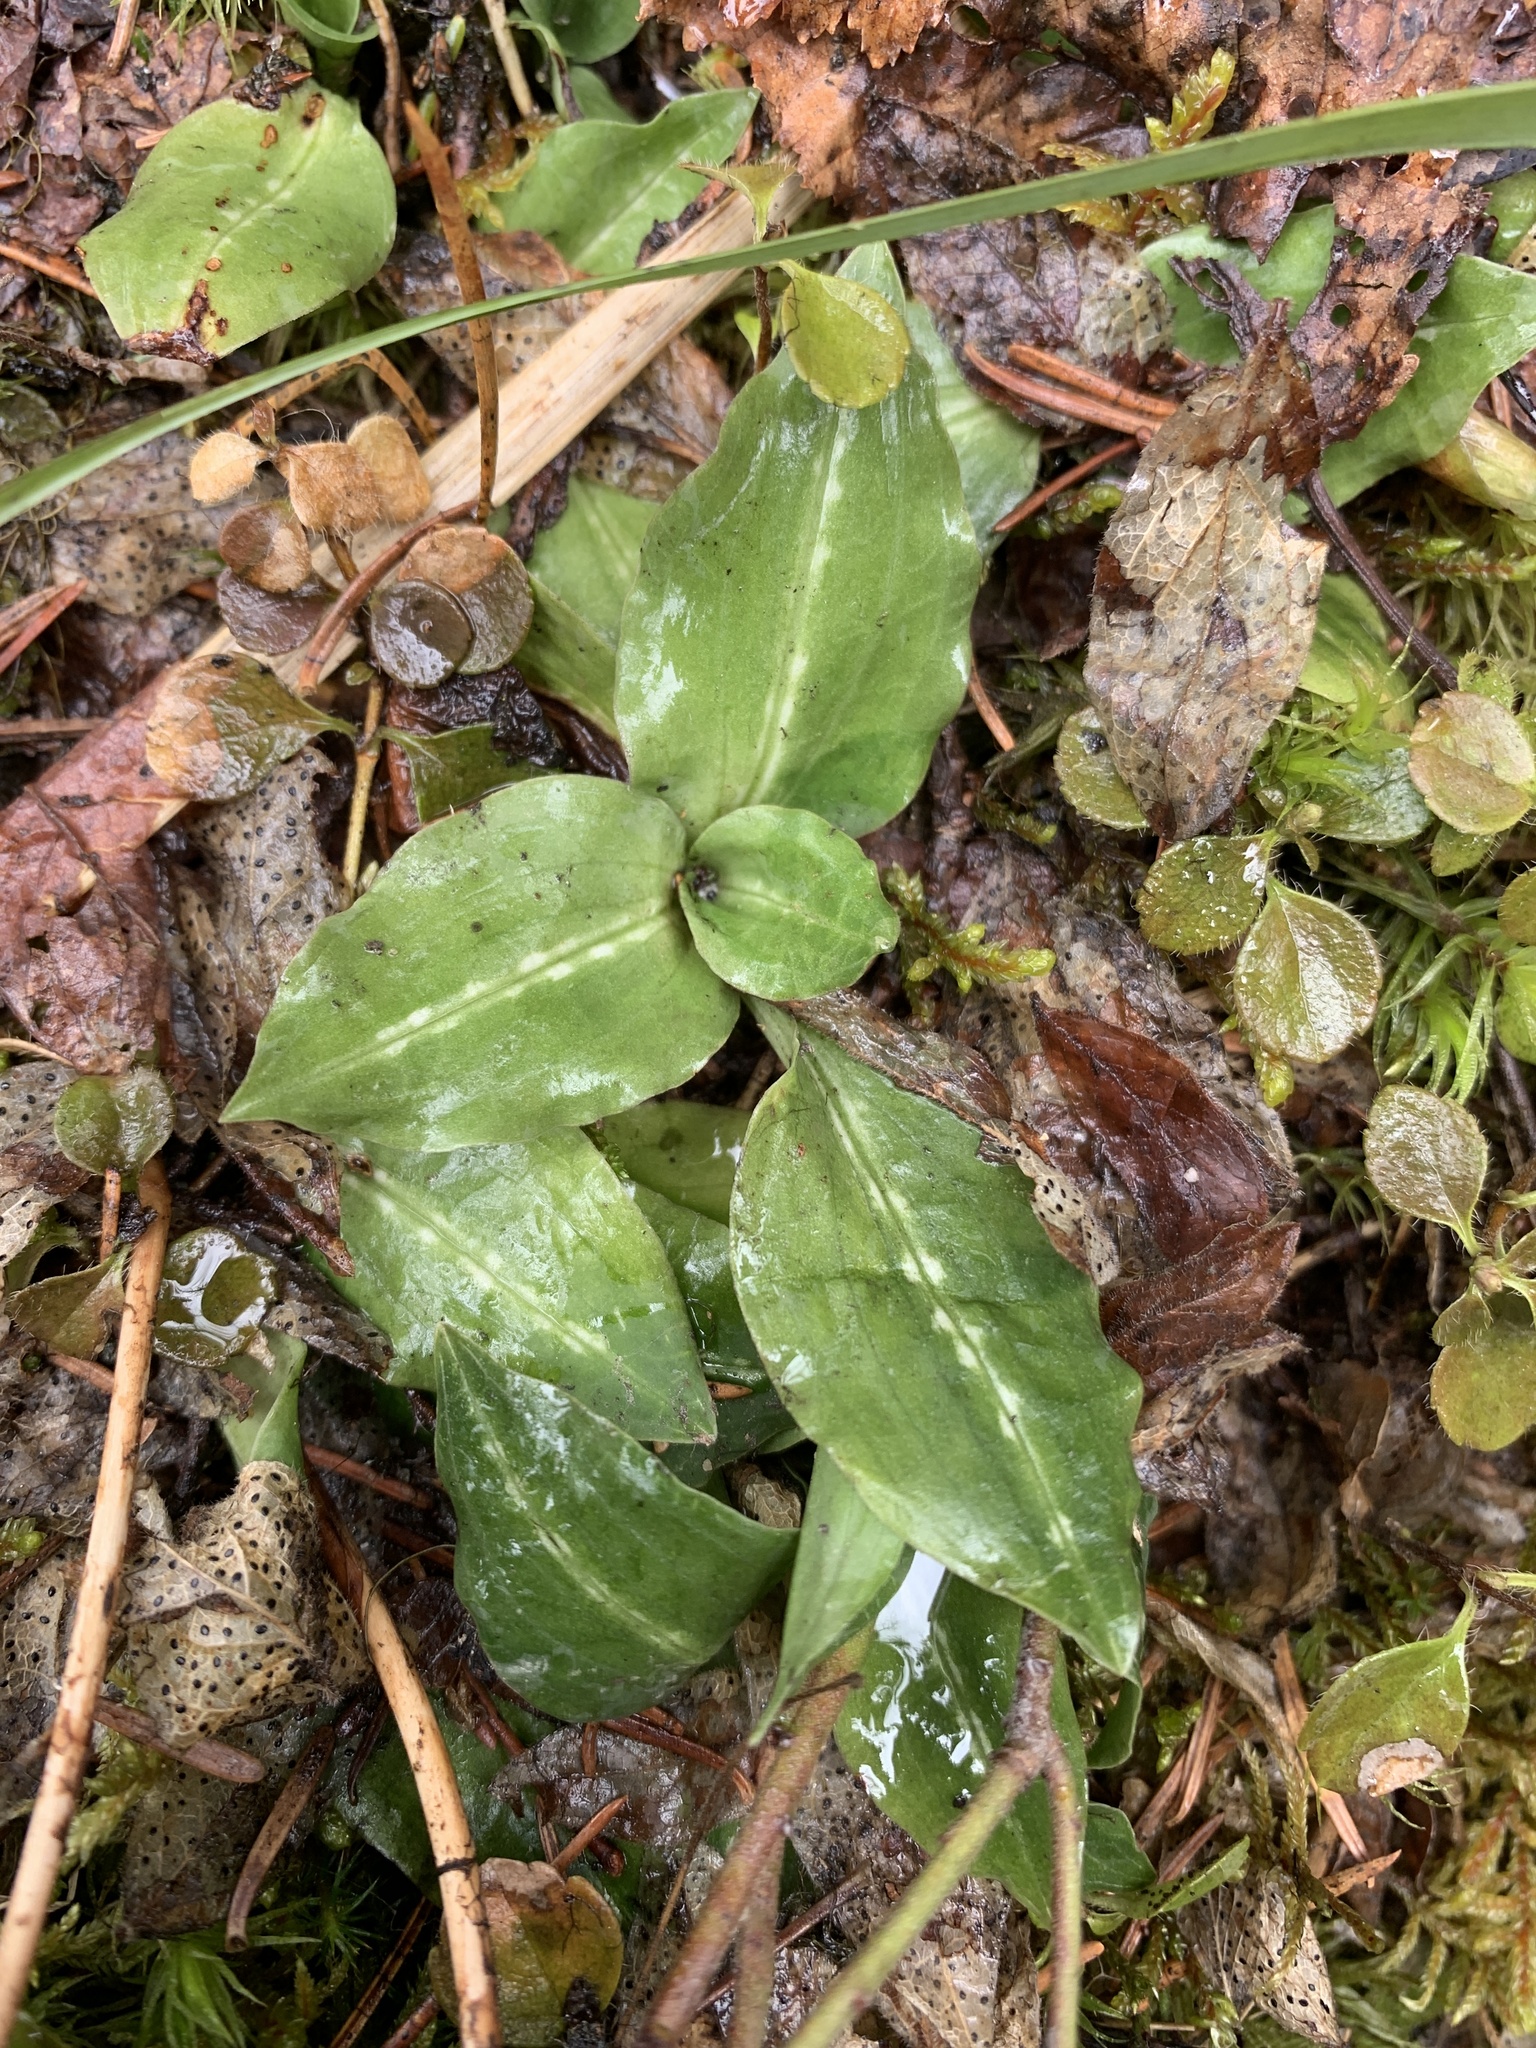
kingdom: Plantae
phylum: Tracheophyta
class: Liliopsida
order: Asparagales
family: Orchidaceae
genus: Goodyera
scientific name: Goodyera oblongifolia
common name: Giant rattlesnake-plantain
